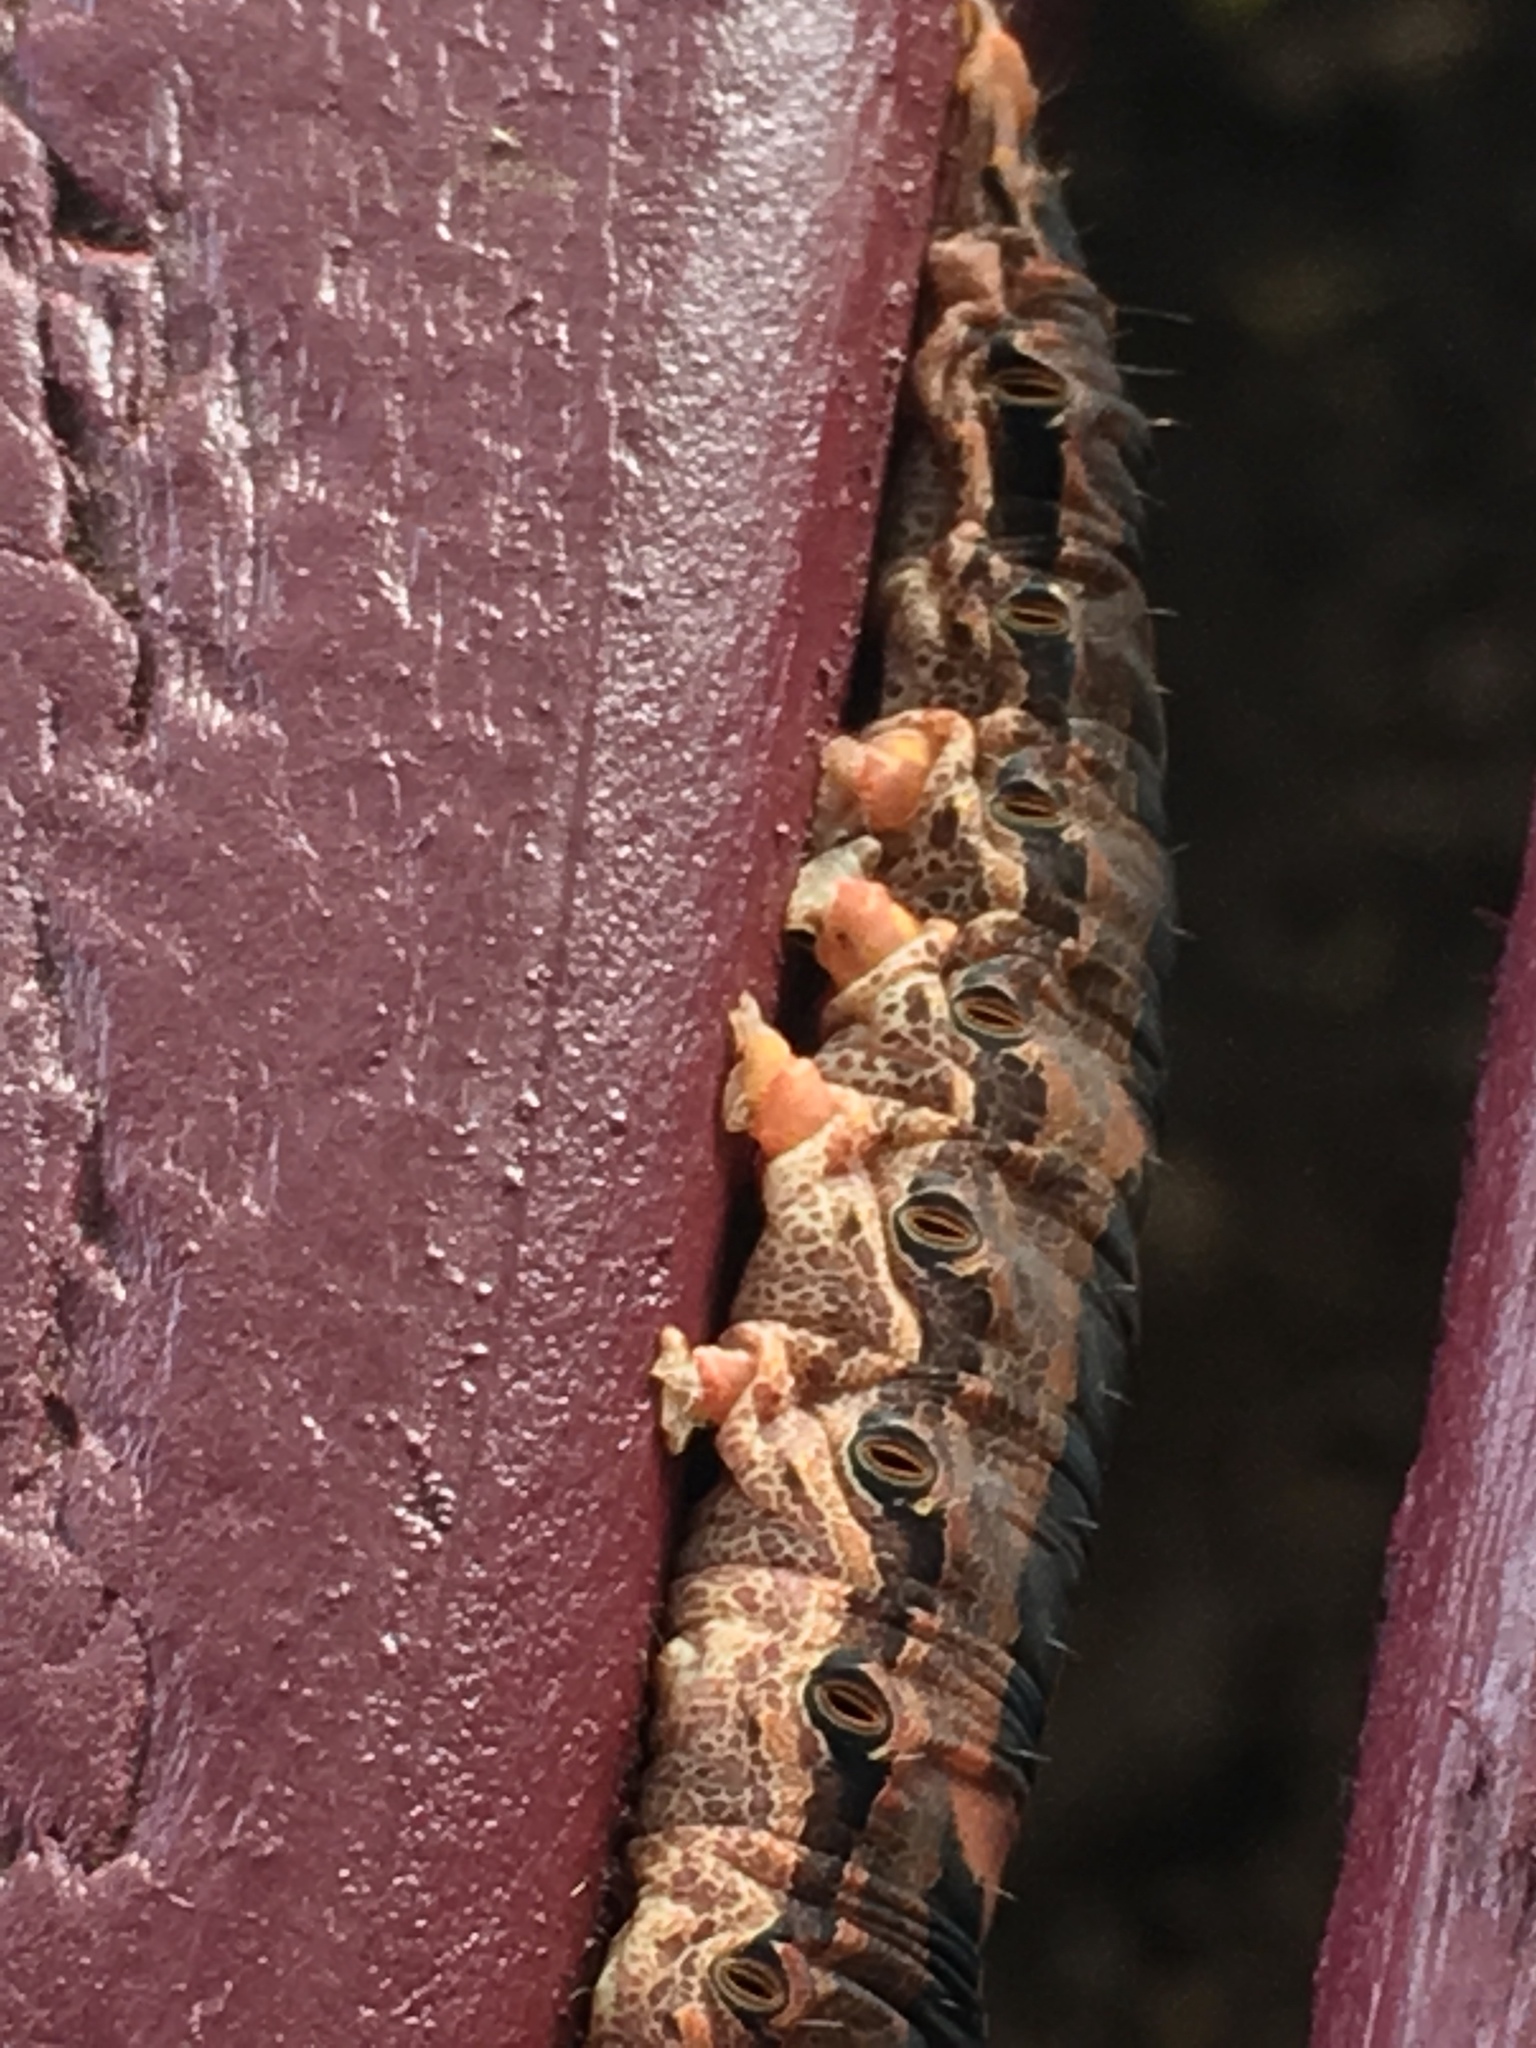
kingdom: Animalia
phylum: Arthropoda
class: Insecta
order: Lepidoptera
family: Erebidae
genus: Ascalapha
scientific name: Ascalapha odorata
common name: Black witch
